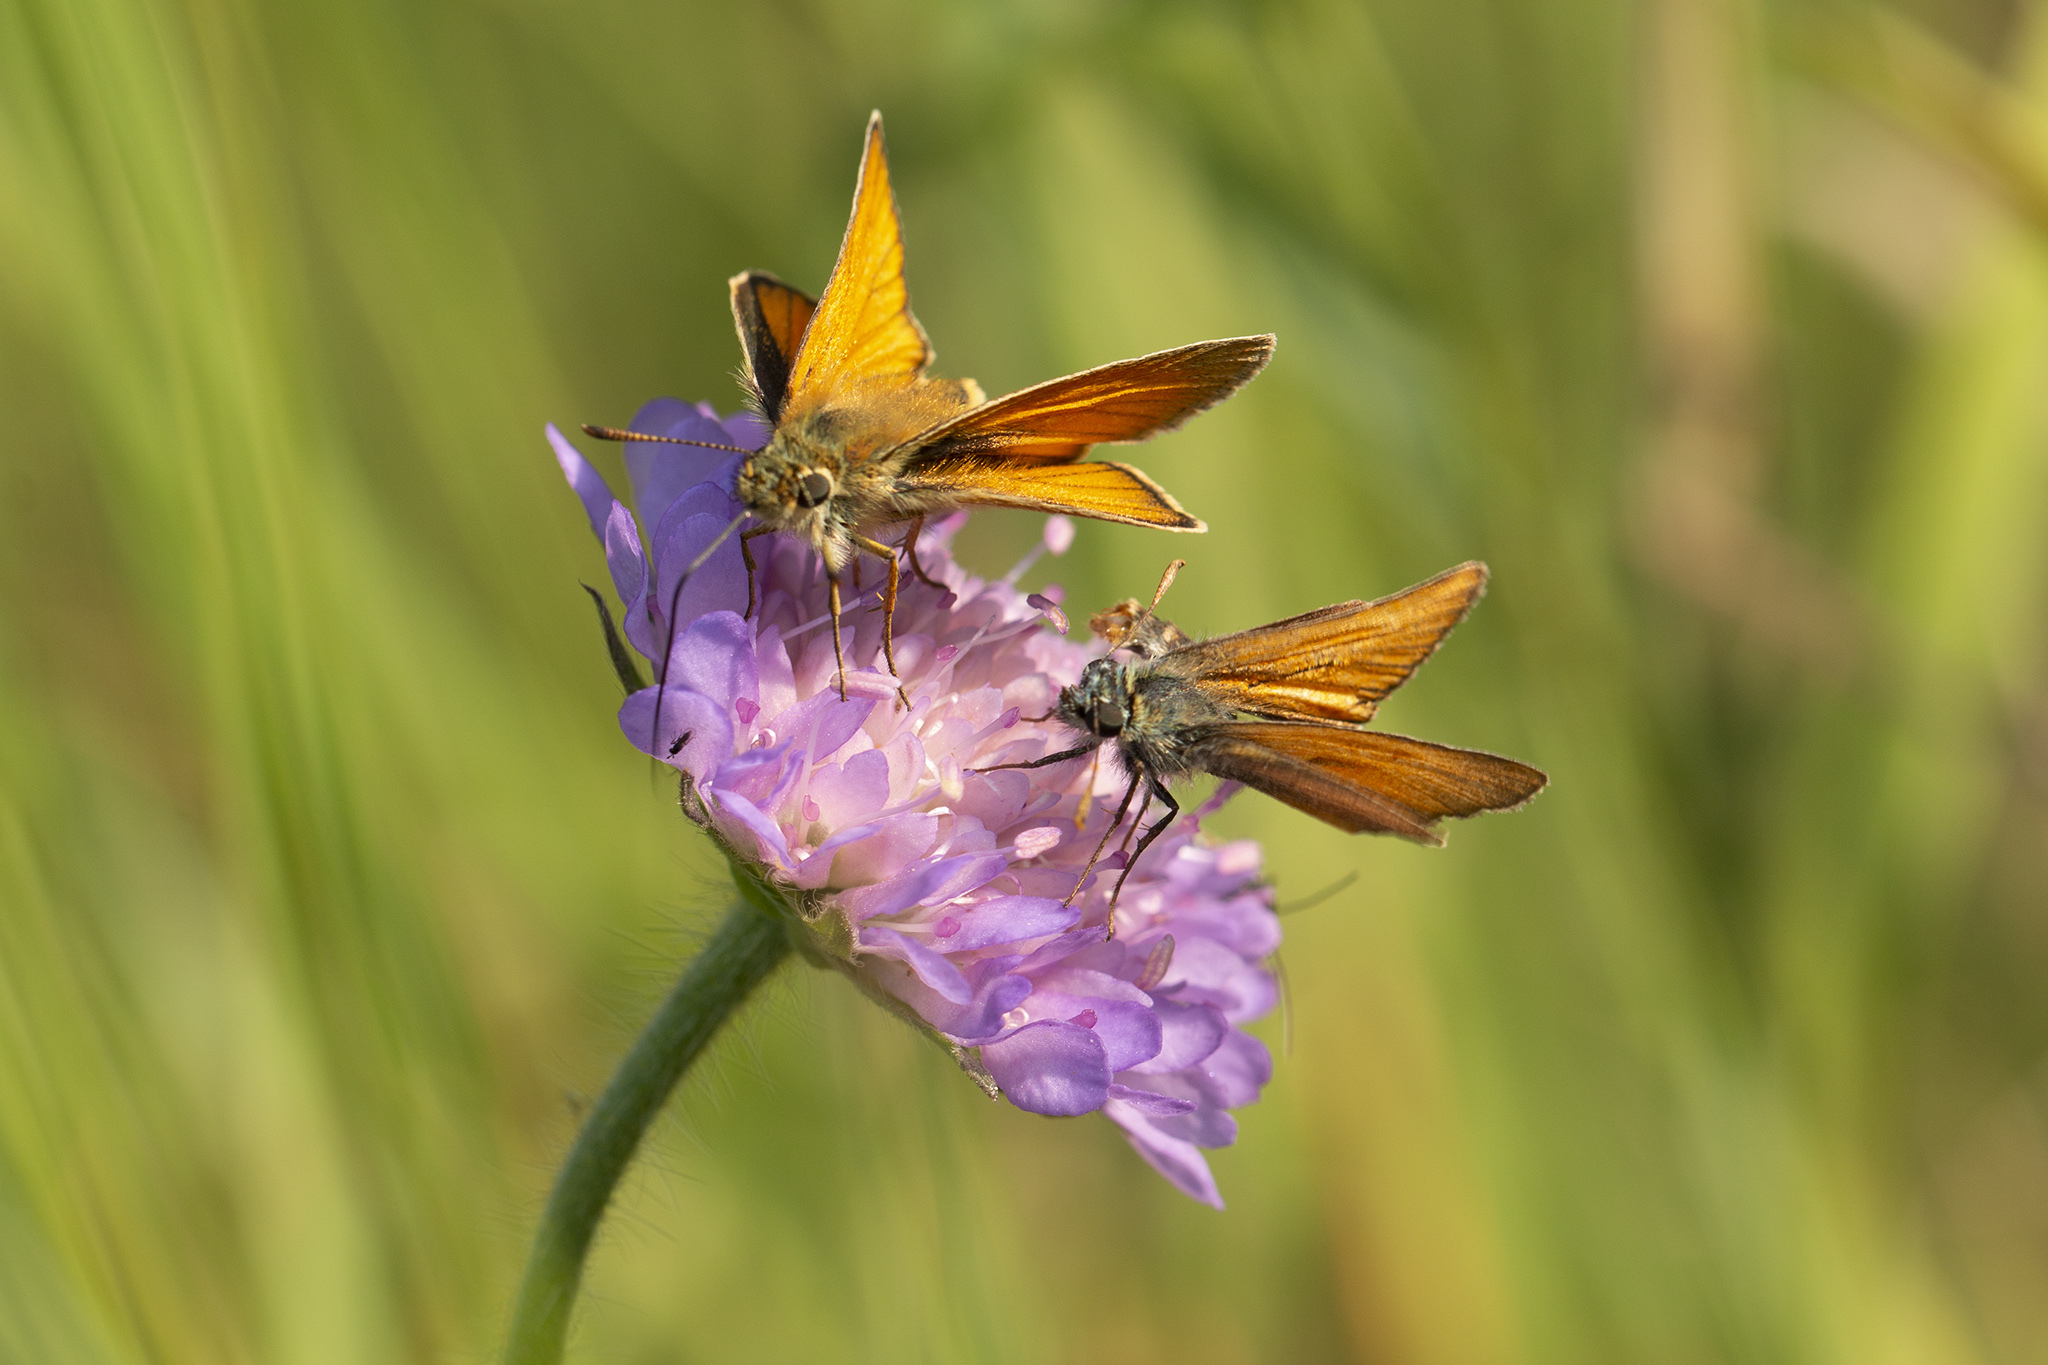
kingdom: Animalia
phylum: Arthropoda
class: Insecta
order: Lepidoptera
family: Hesperiidae
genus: Thymelicus
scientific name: Thymelicus sylvestris
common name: Small skipper
